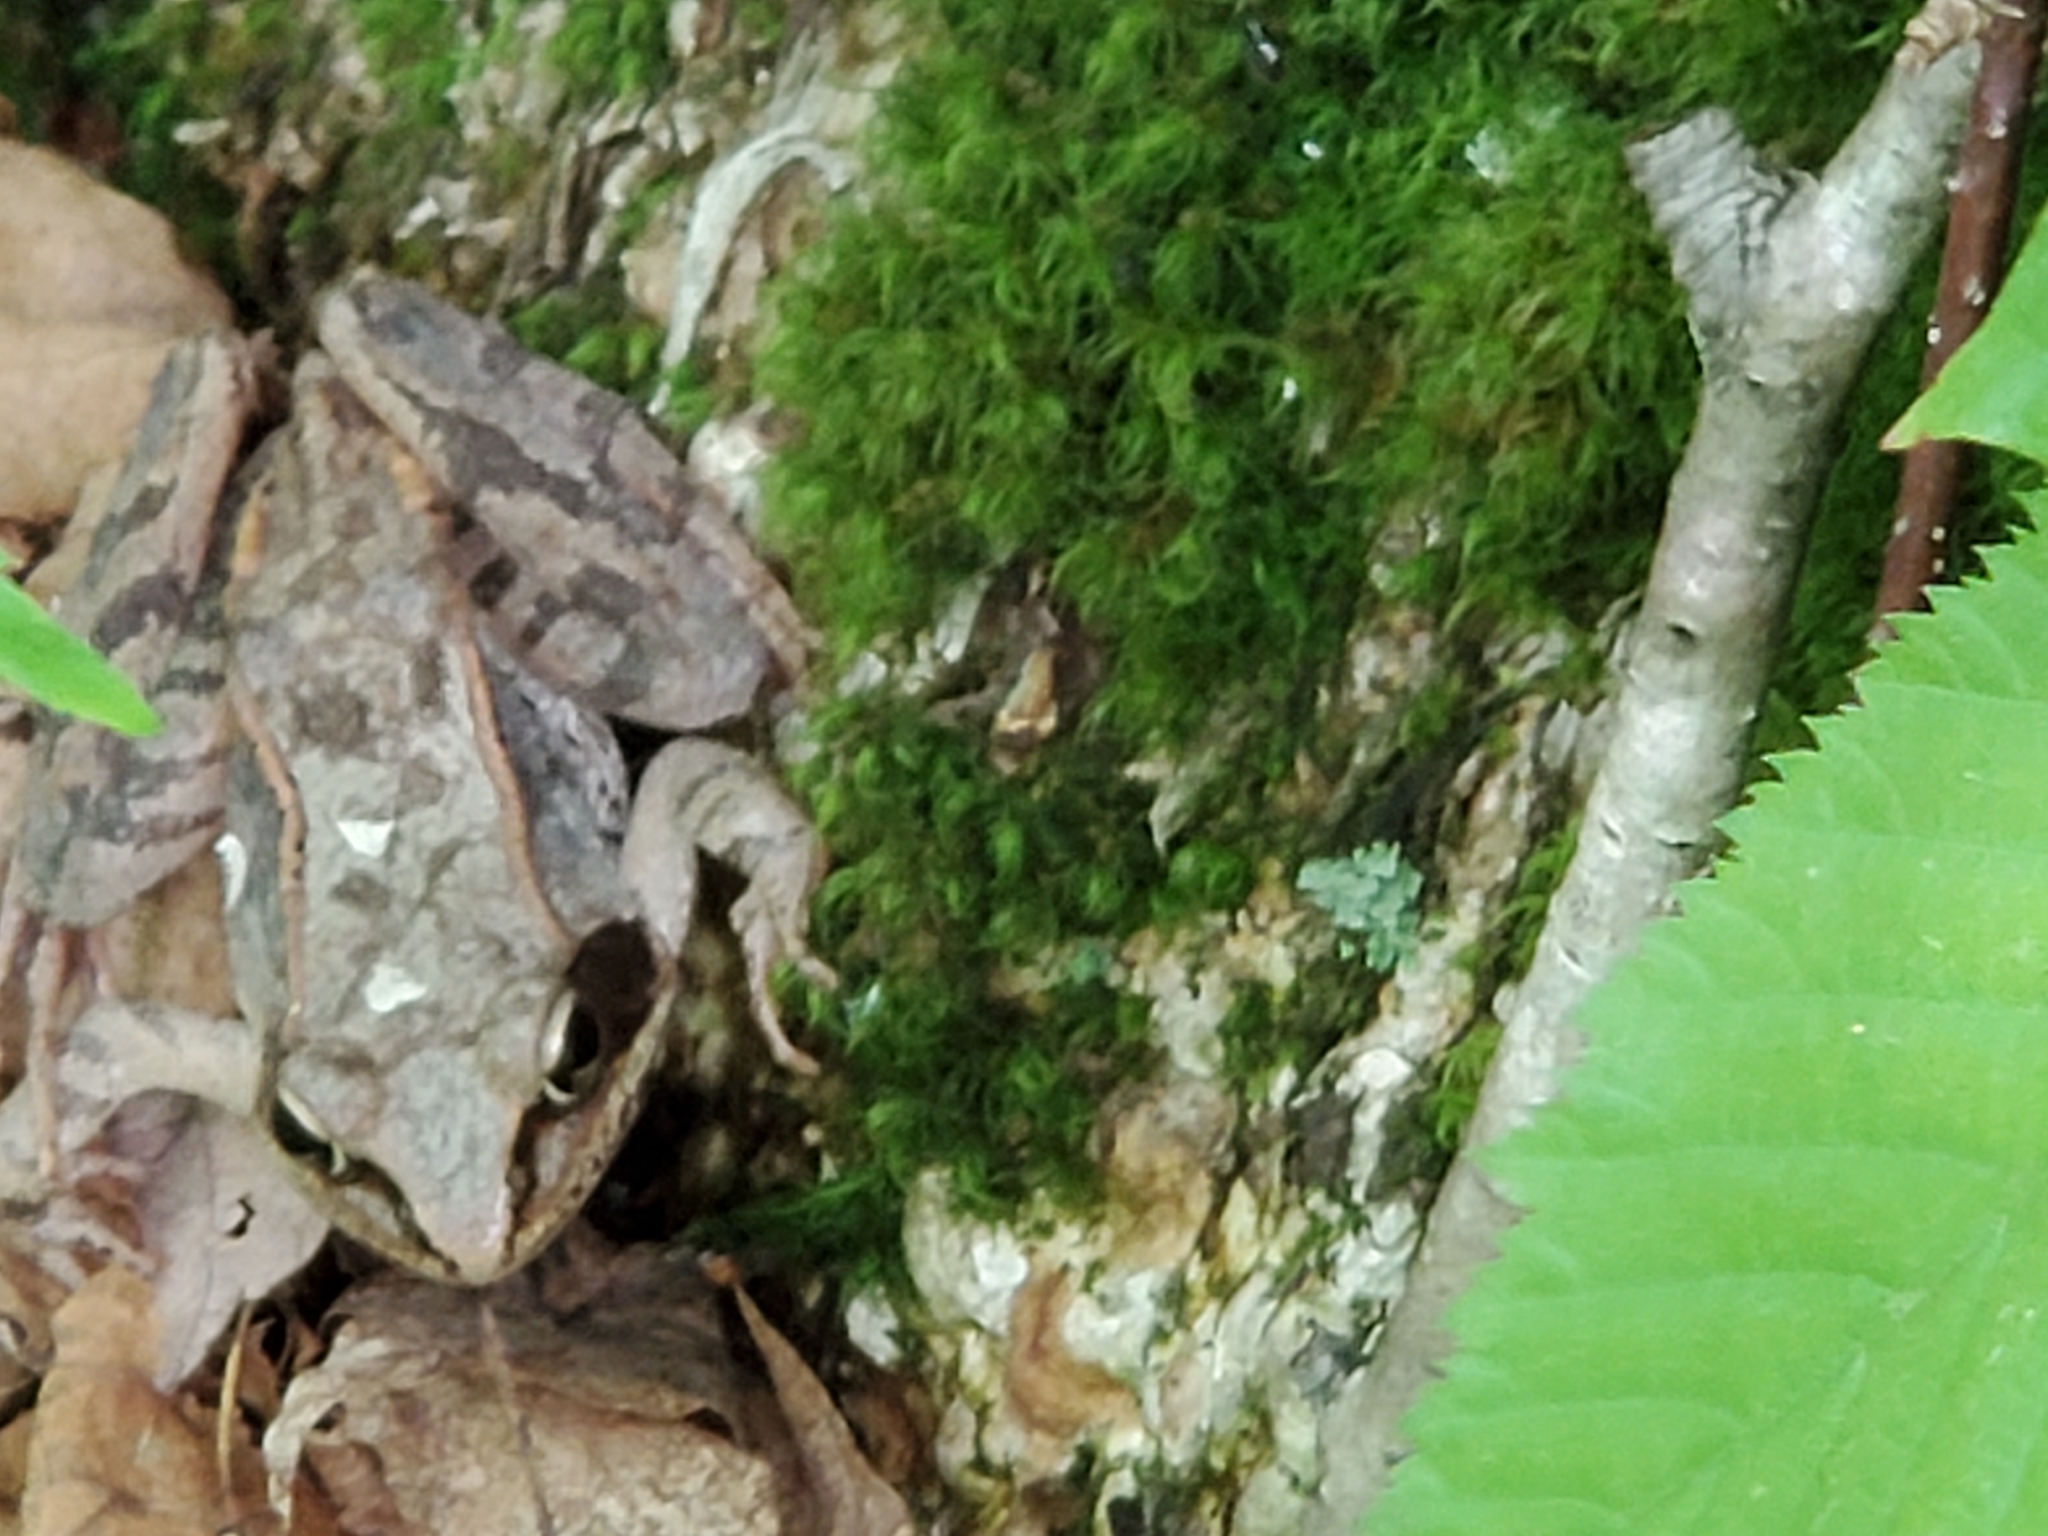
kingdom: Animalia
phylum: Chordata
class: Amphibia
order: Anura
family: Ranidae
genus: Lithobates
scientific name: Lithobates sylvaticus
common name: Wood frog
